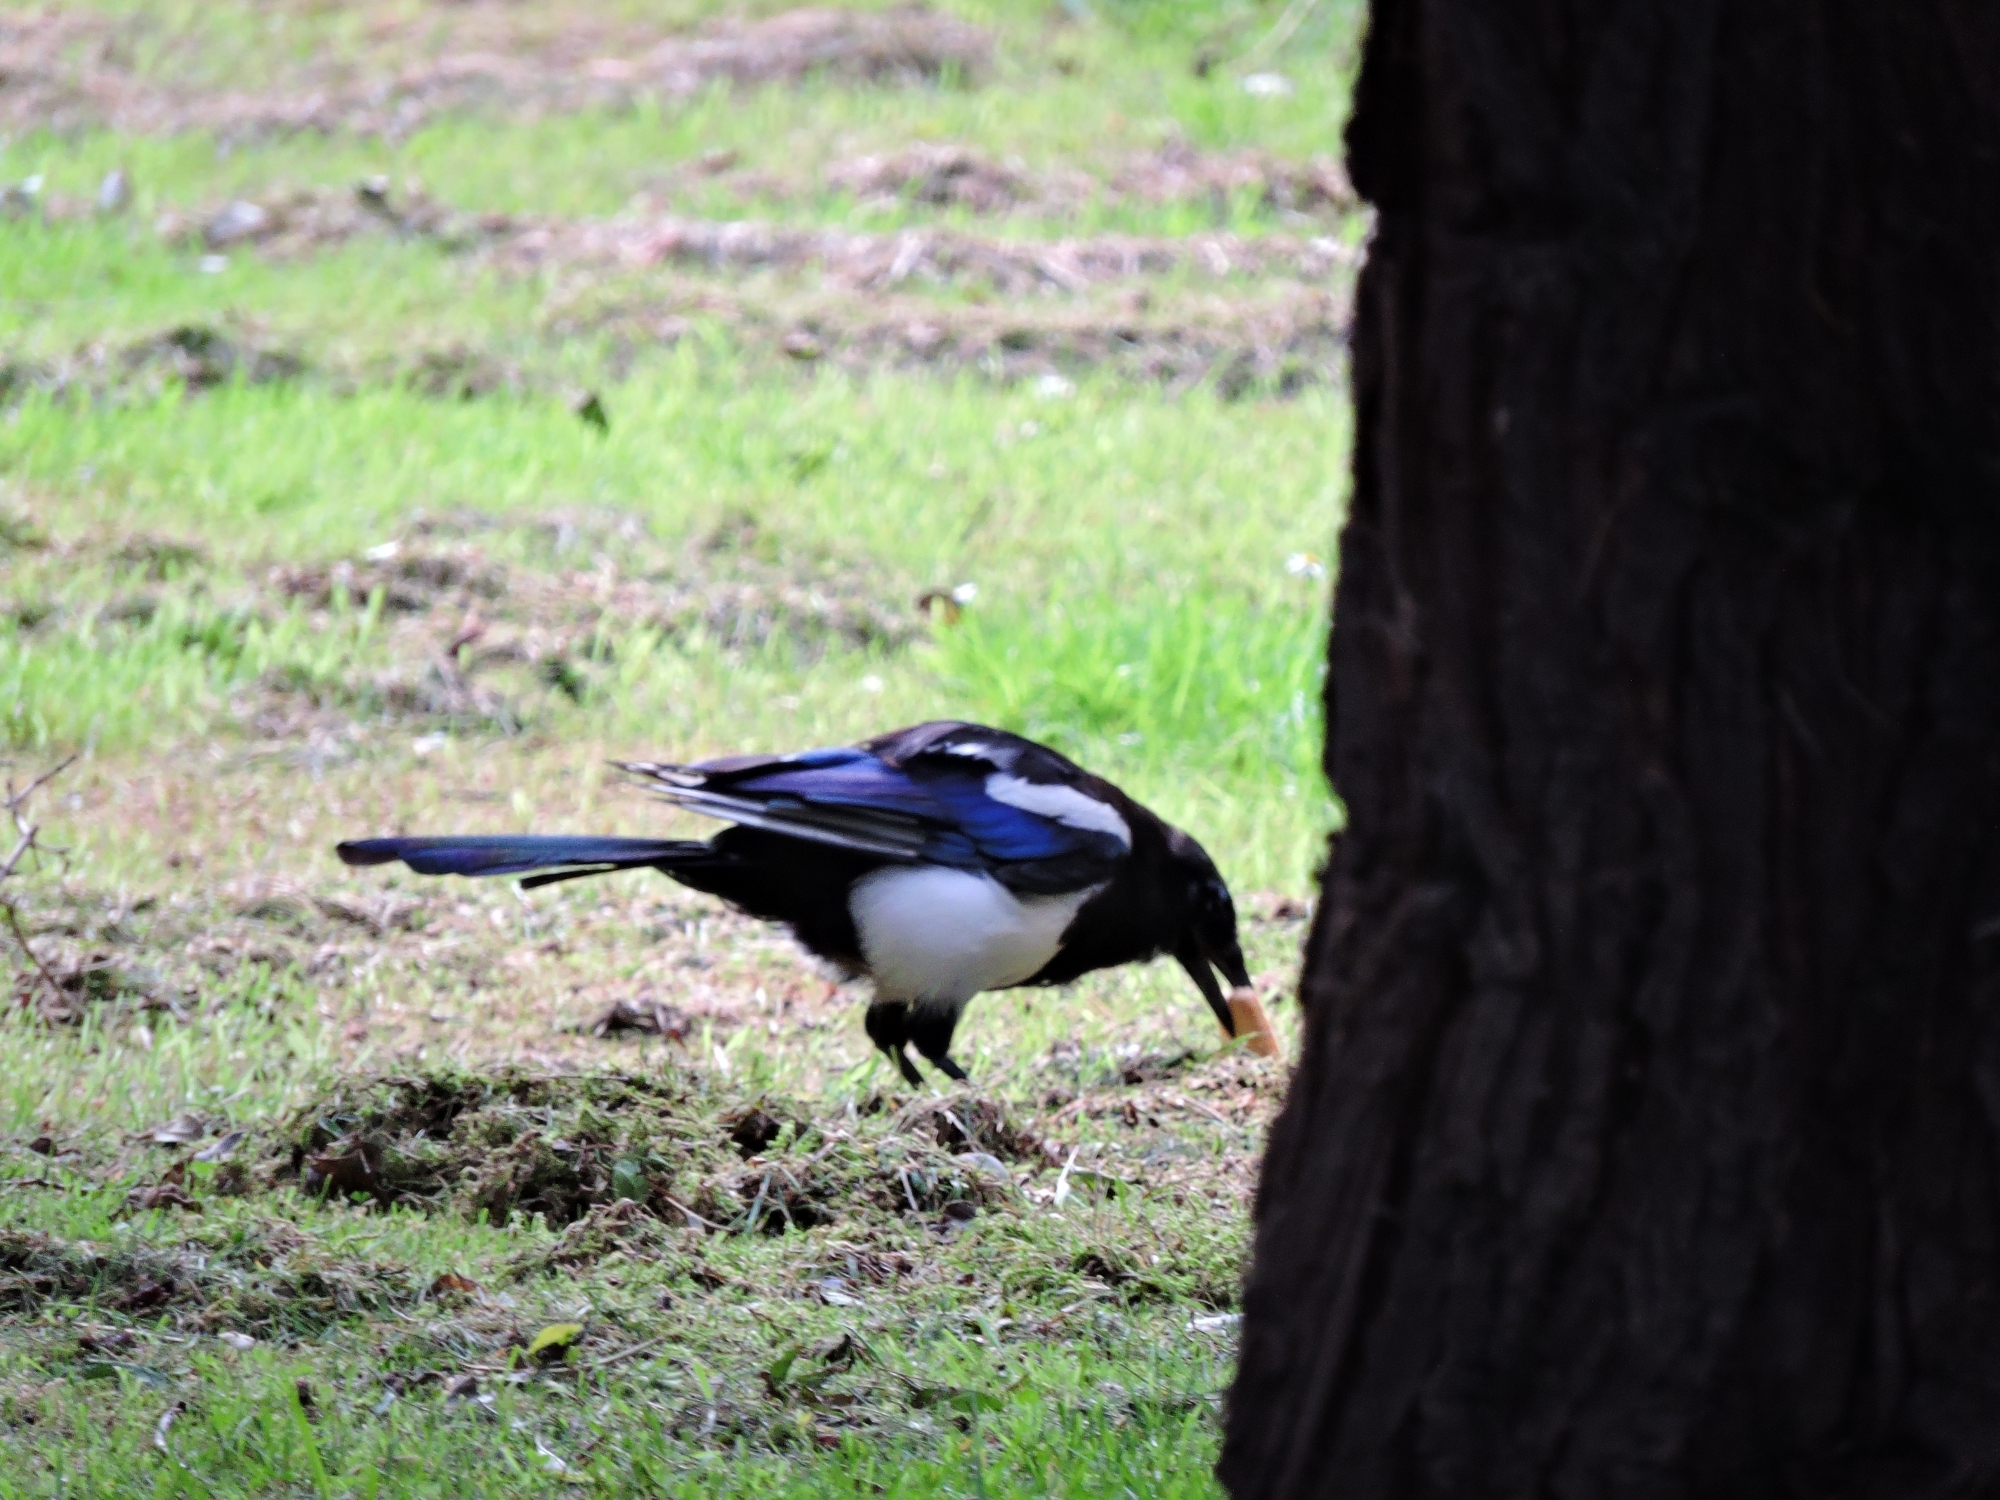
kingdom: Animalia
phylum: Chordata
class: Aves
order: Passeriformes
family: Corvidae
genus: Pica
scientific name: Pica pica
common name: Eurasian magpie
